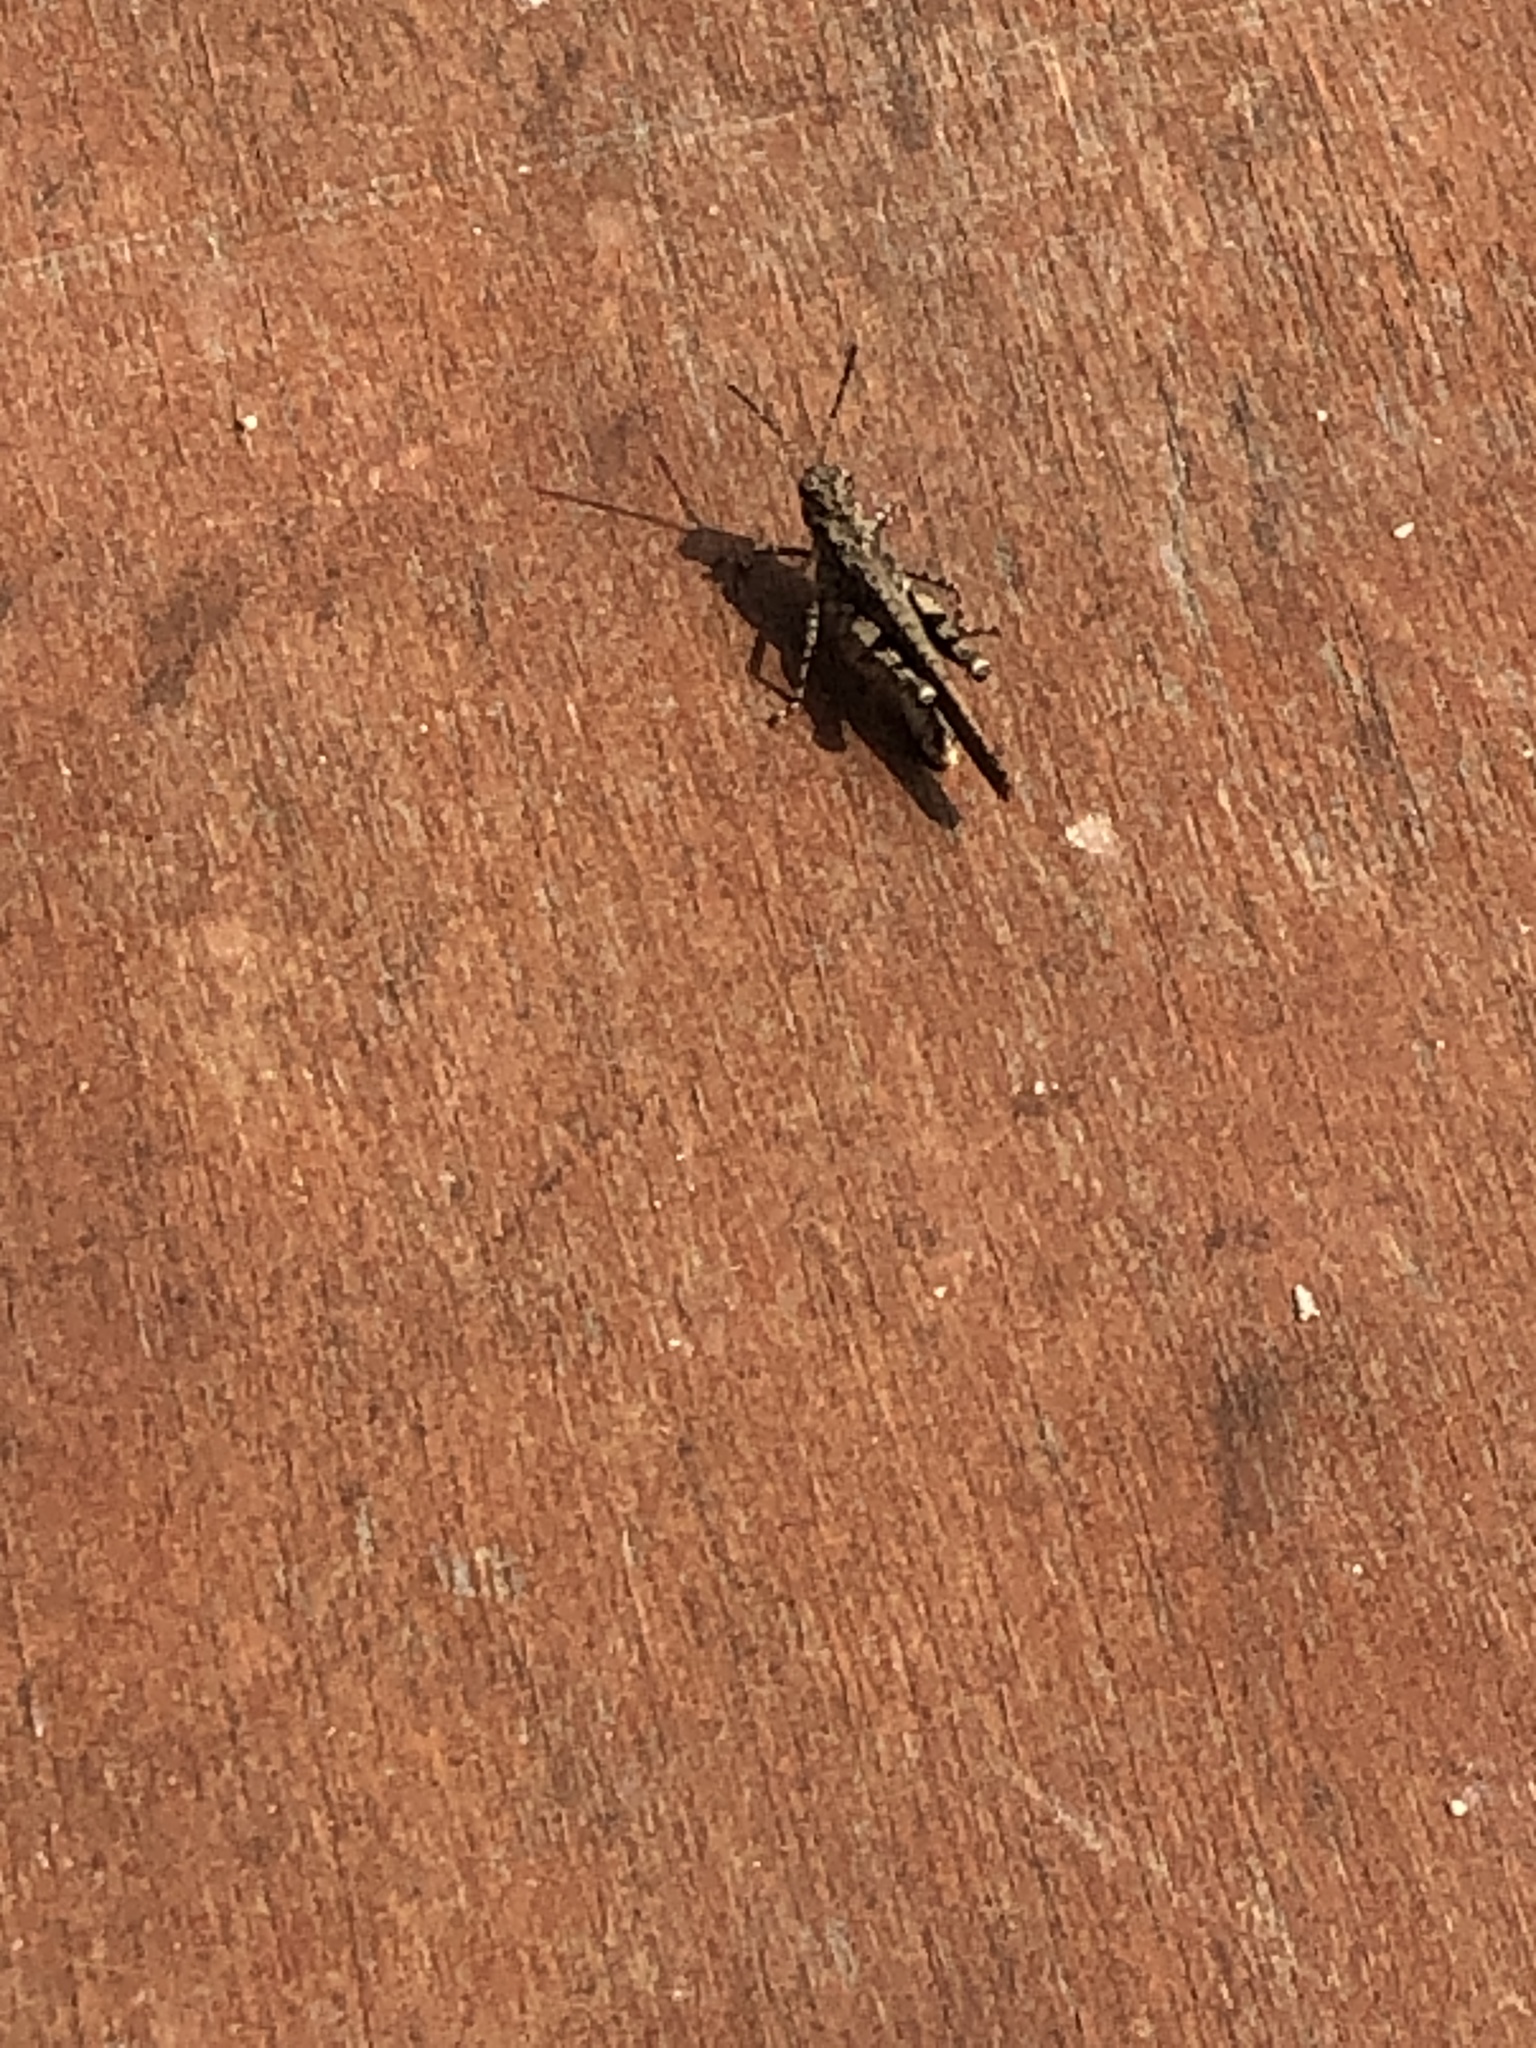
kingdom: Animalia
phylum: Arthropoda
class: Insecta
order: Orthoptera
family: Acrididae
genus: Trilophidia
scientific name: Trilophidia annulata
